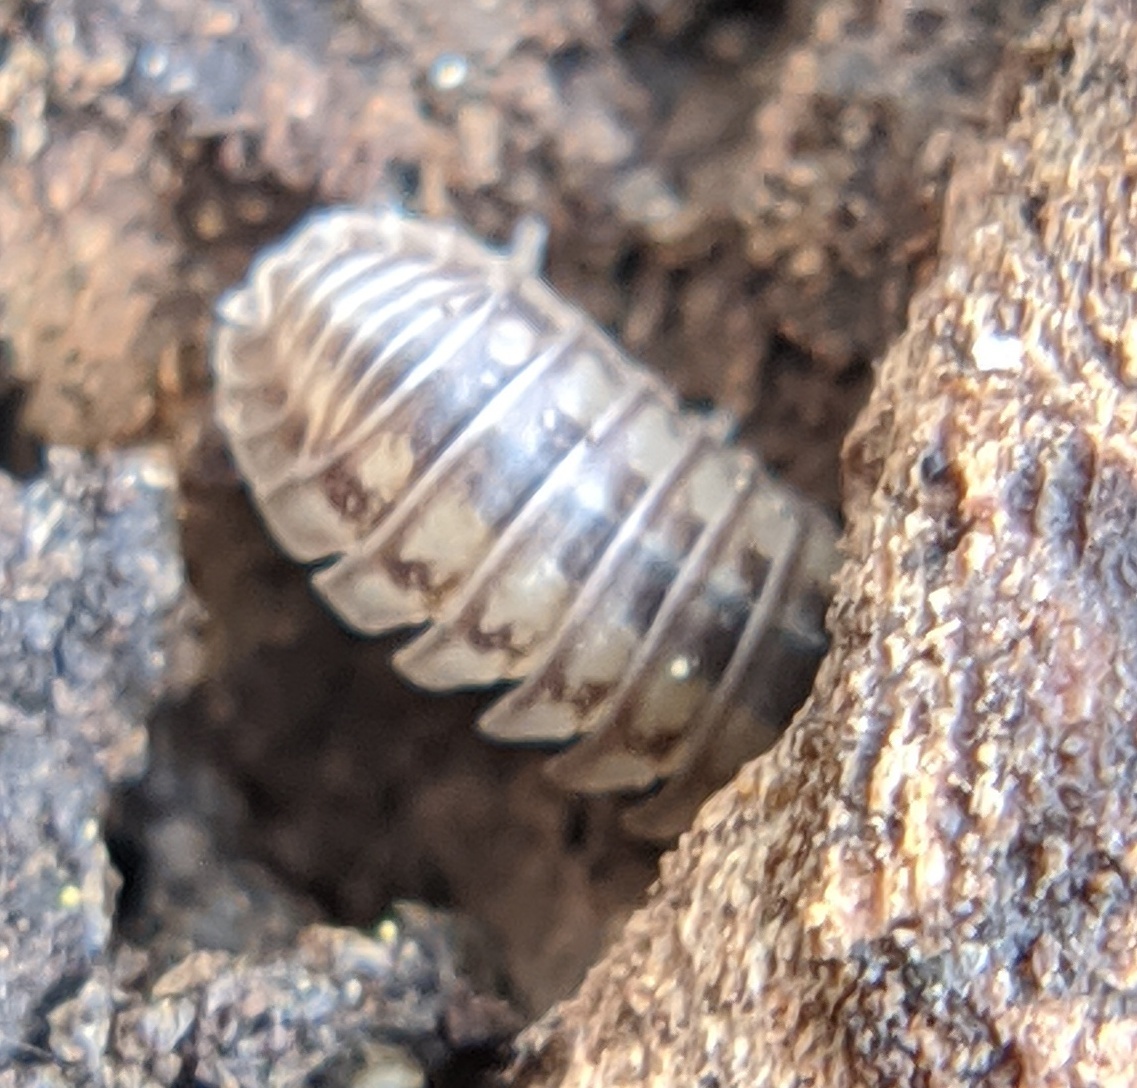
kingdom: Animalia
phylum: Arthropoda
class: Malacostraca
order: Isopoda
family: Armadillidiidae
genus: Armadillidium
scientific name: Armadillidium nasatum
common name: Isopod
